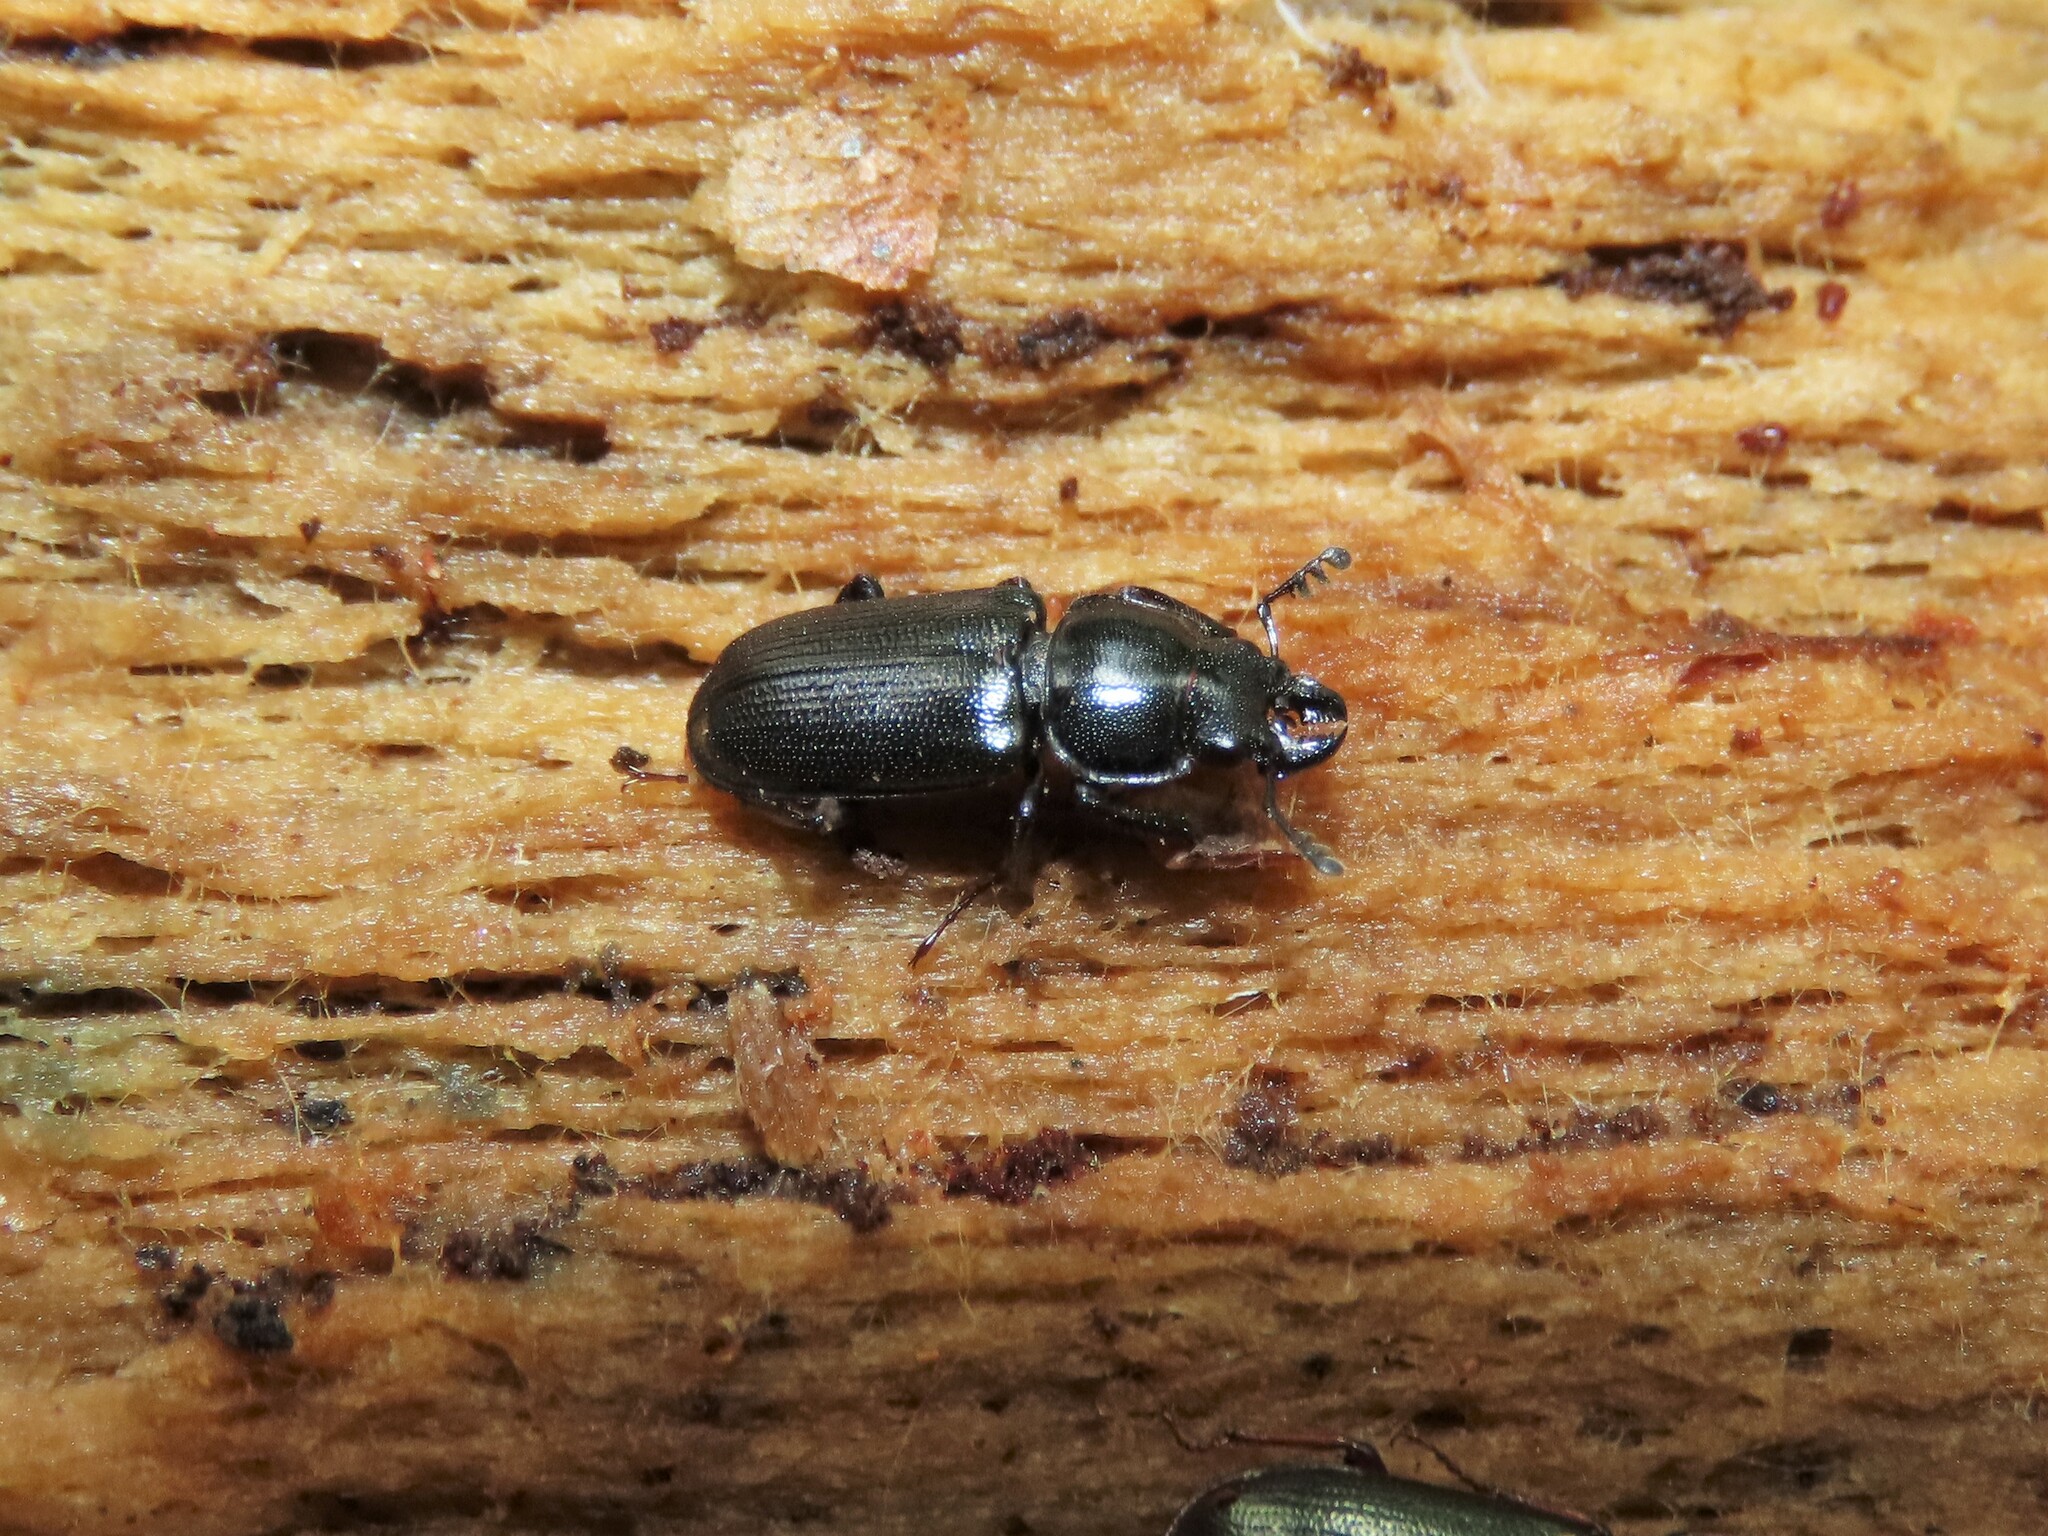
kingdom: Animalia
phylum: Arthropoda
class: Insecta
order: Coleoptera
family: Lucanidae
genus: Platycerus
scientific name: Platycerus quercus
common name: Oak stag beetle
